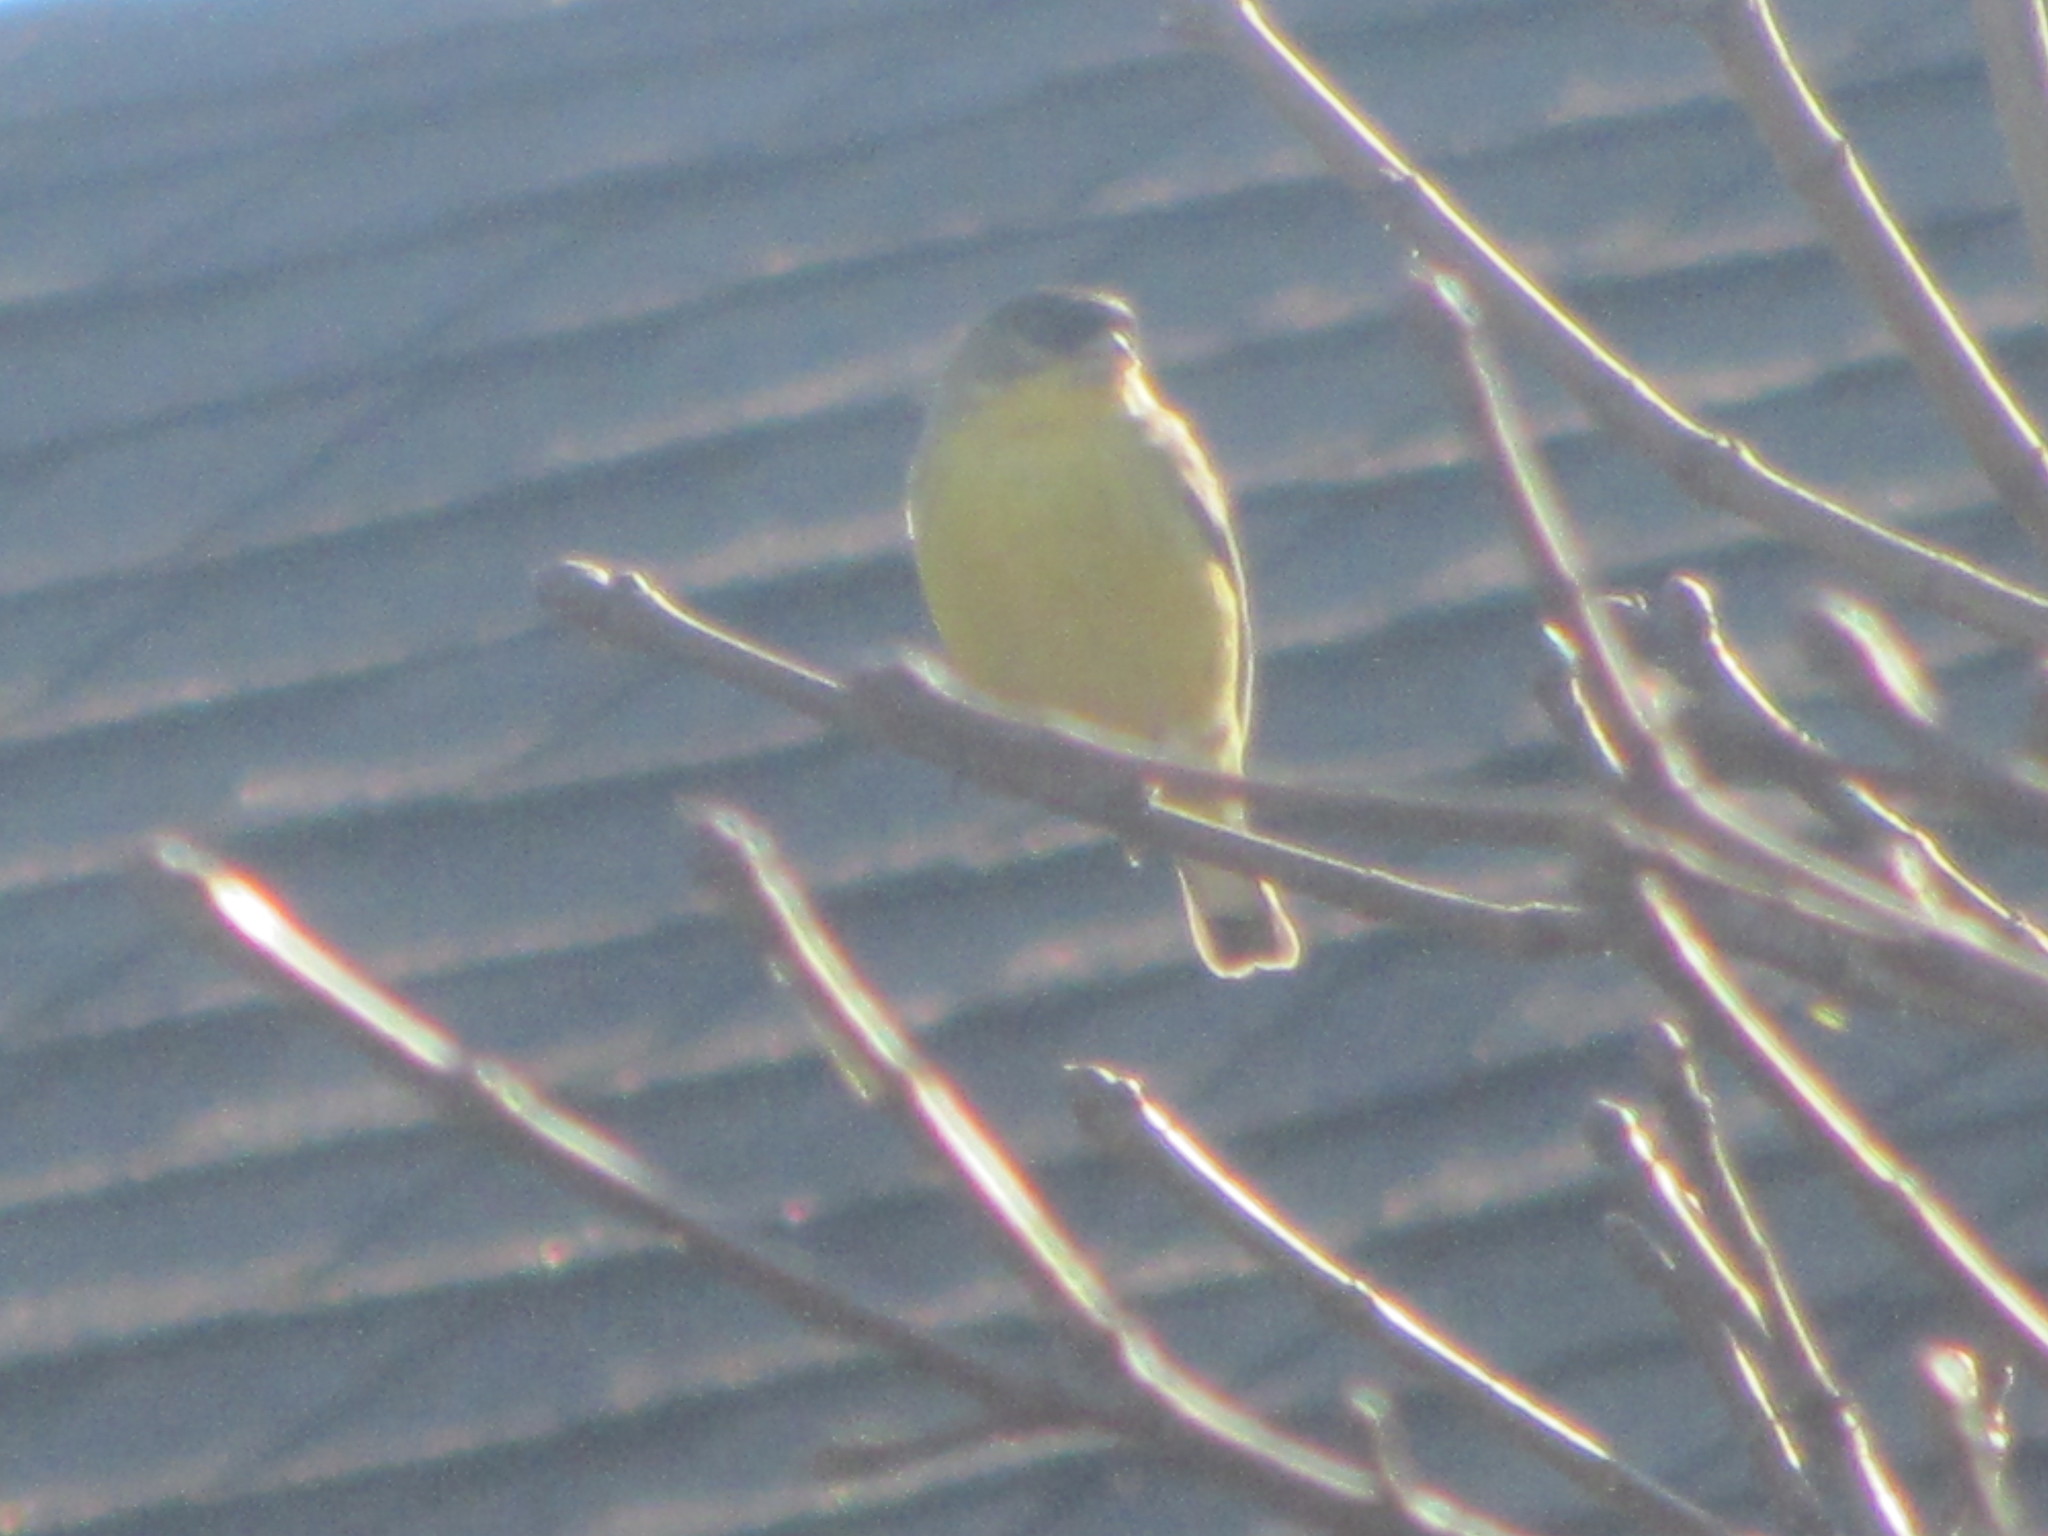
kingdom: Animalia
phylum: Chordata
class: Aves
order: Passeriformes
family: Fringillidae
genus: Spinus
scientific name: Spinus psaltria
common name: Lesser goldfinch
